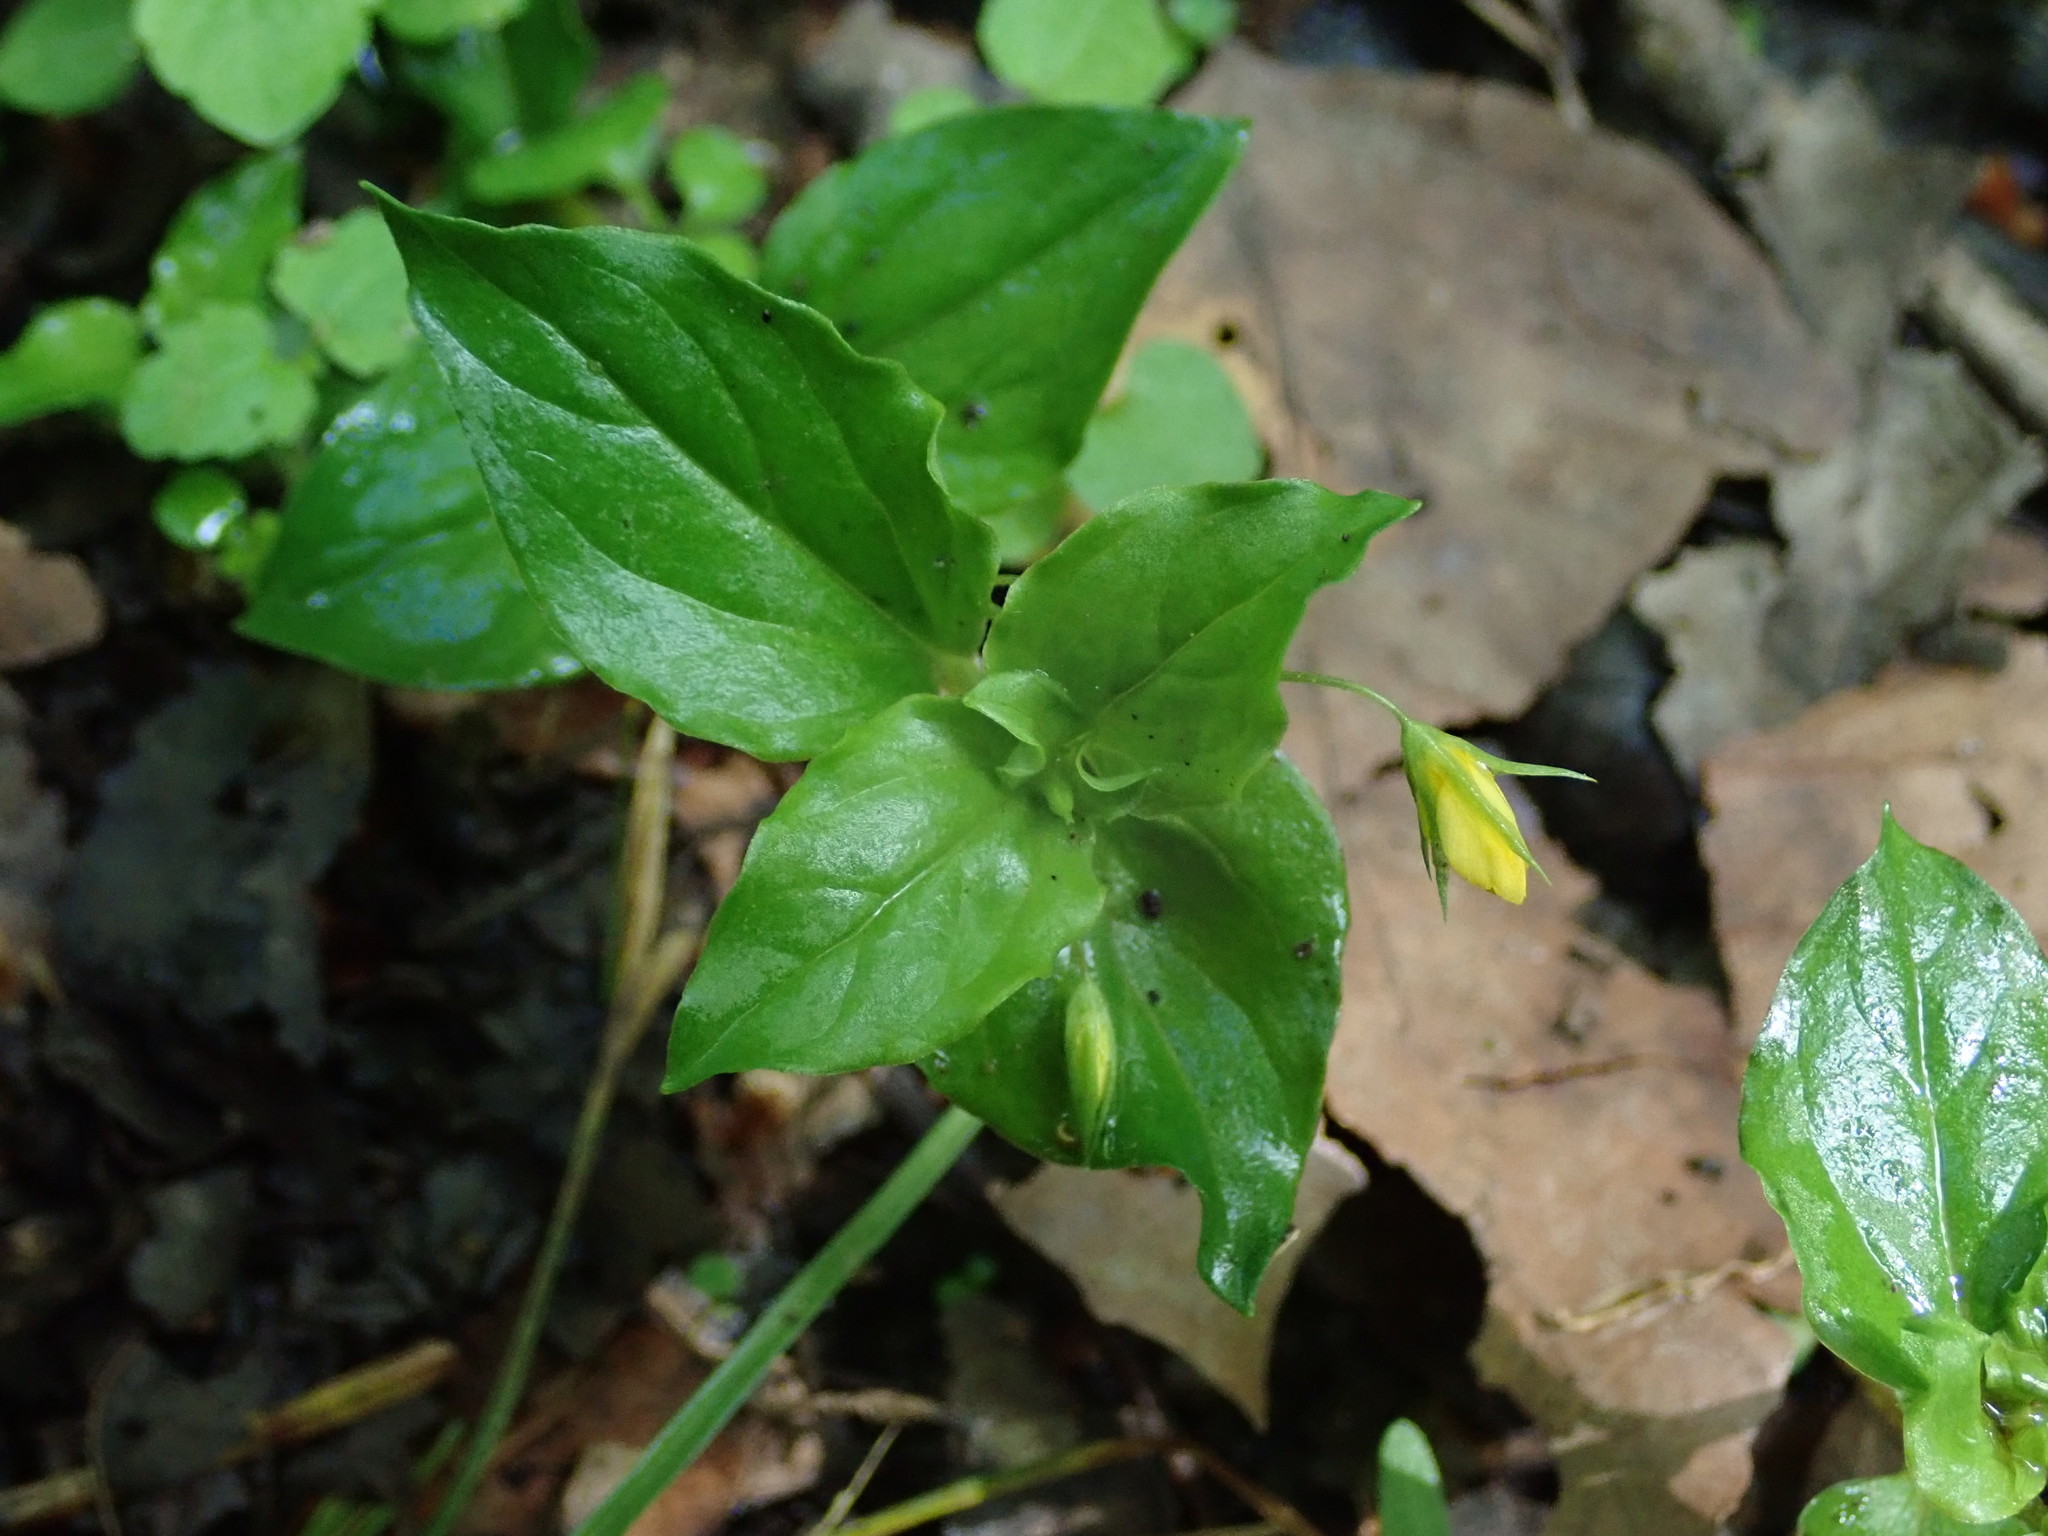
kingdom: Plantae
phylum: Tracheophyta
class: Magnoliopsida
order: Ericales
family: Primulaceae
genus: Lysimachia
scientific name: Lysimachia nemorum
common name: Yellow pimpernel
